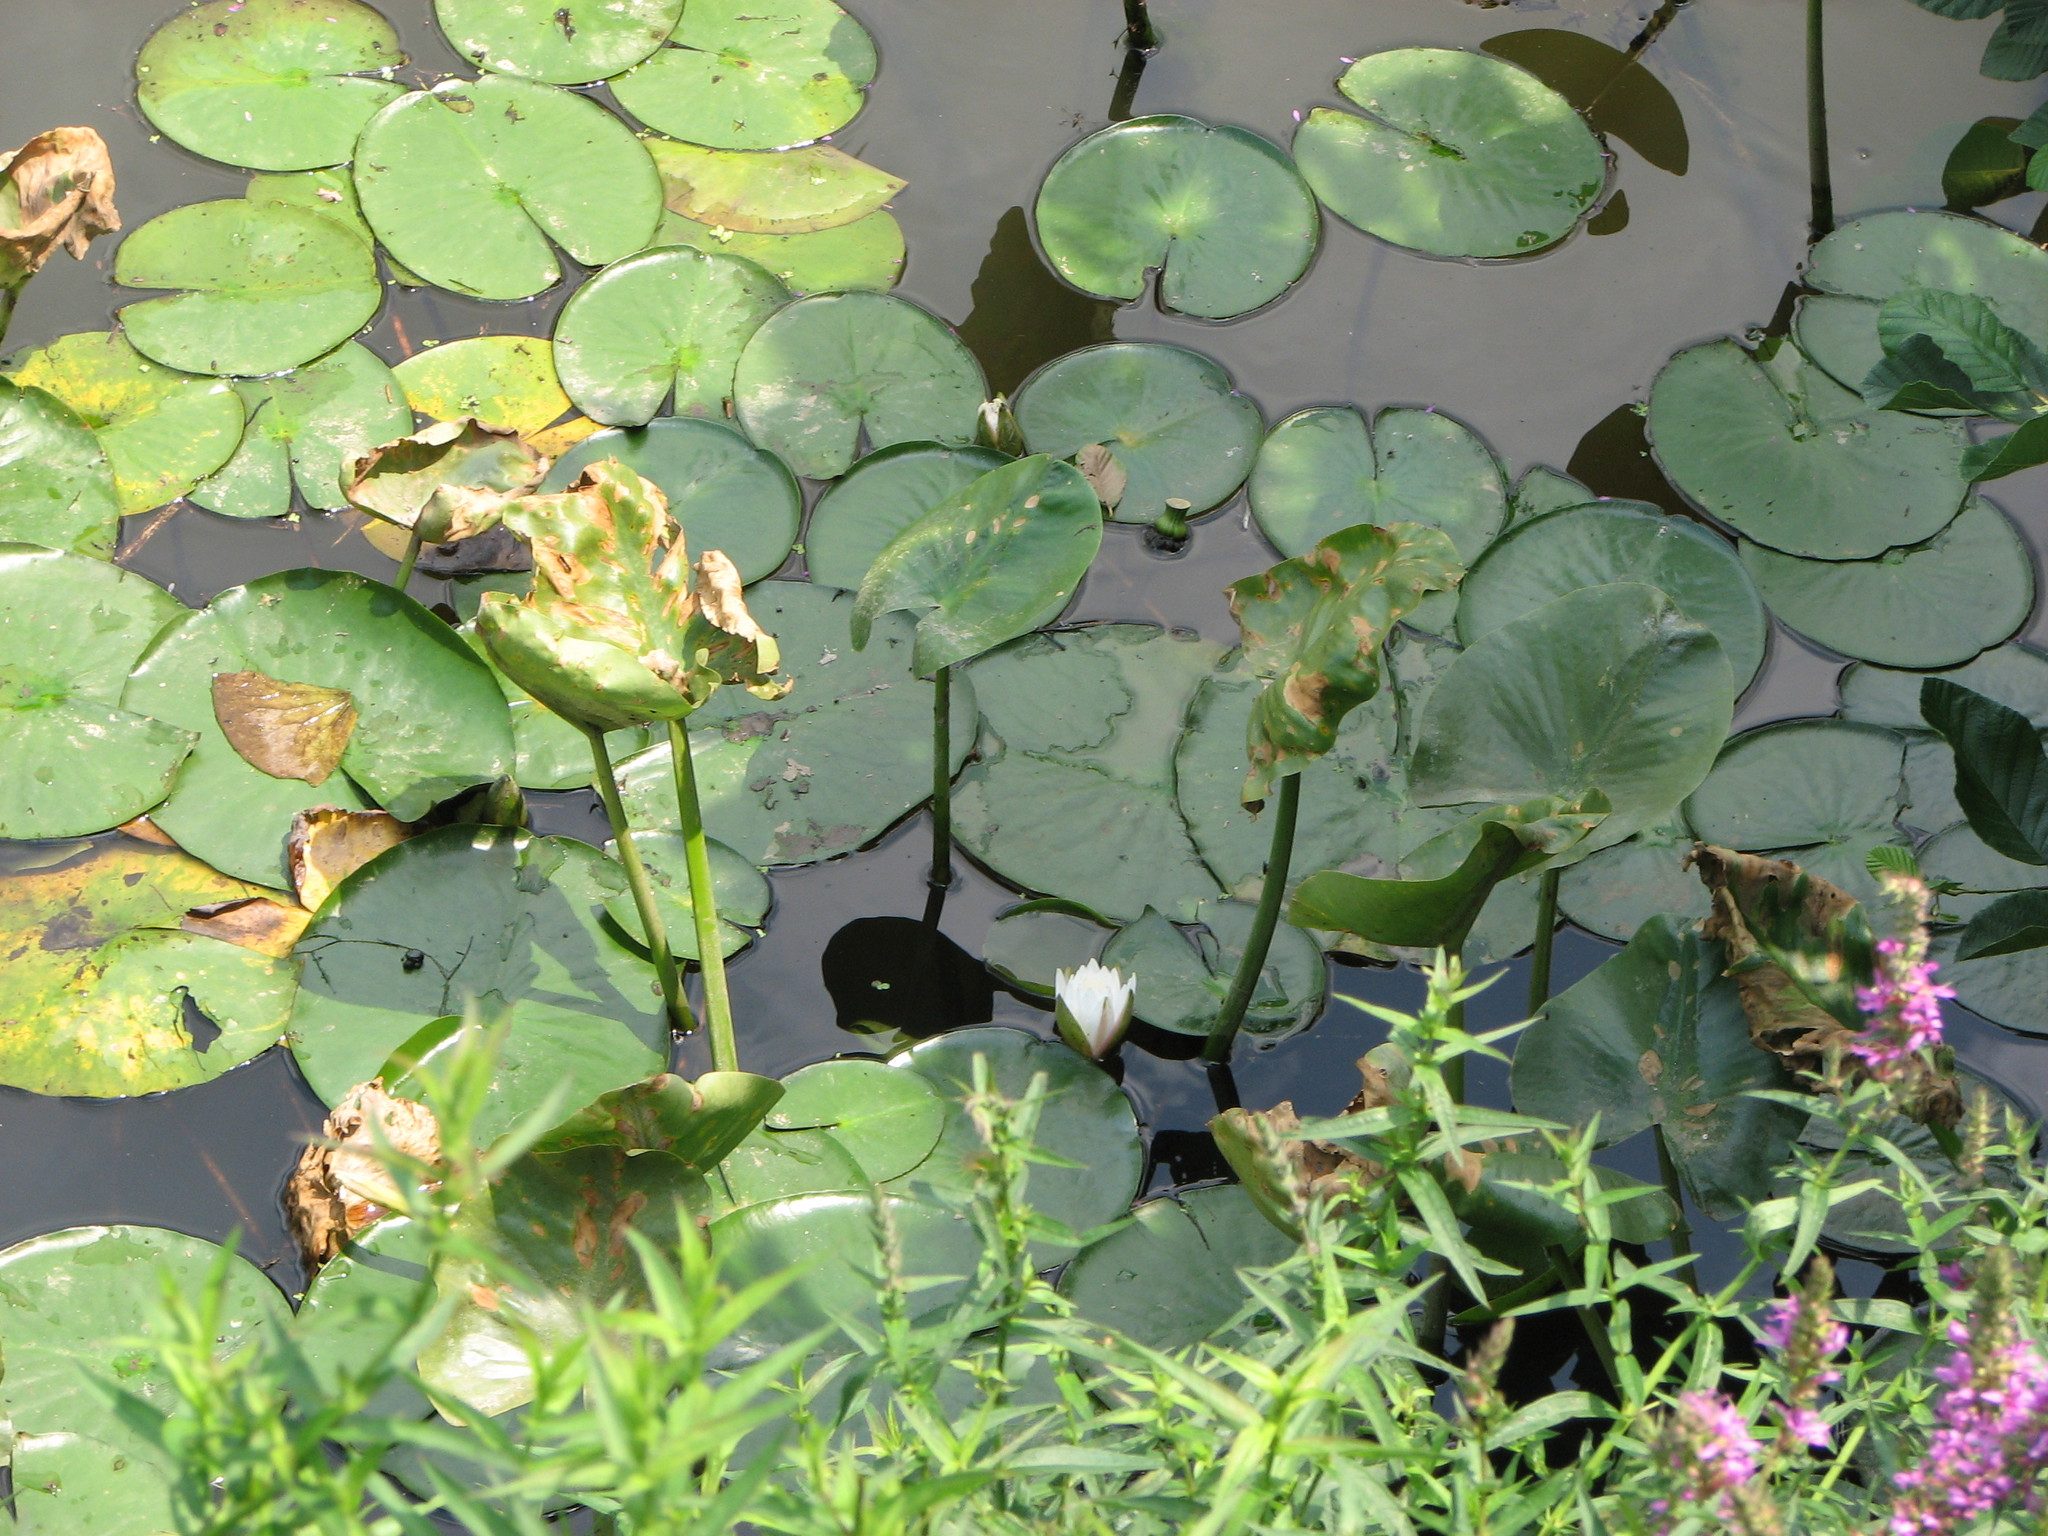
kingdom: Plantae
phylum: Tracheophyta
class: Magnoliopsida
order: Nymphaeales
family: Nymphaeaceae
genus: Nymphaea
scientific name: Nymphaea odorata
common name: Fragrant water-lily
